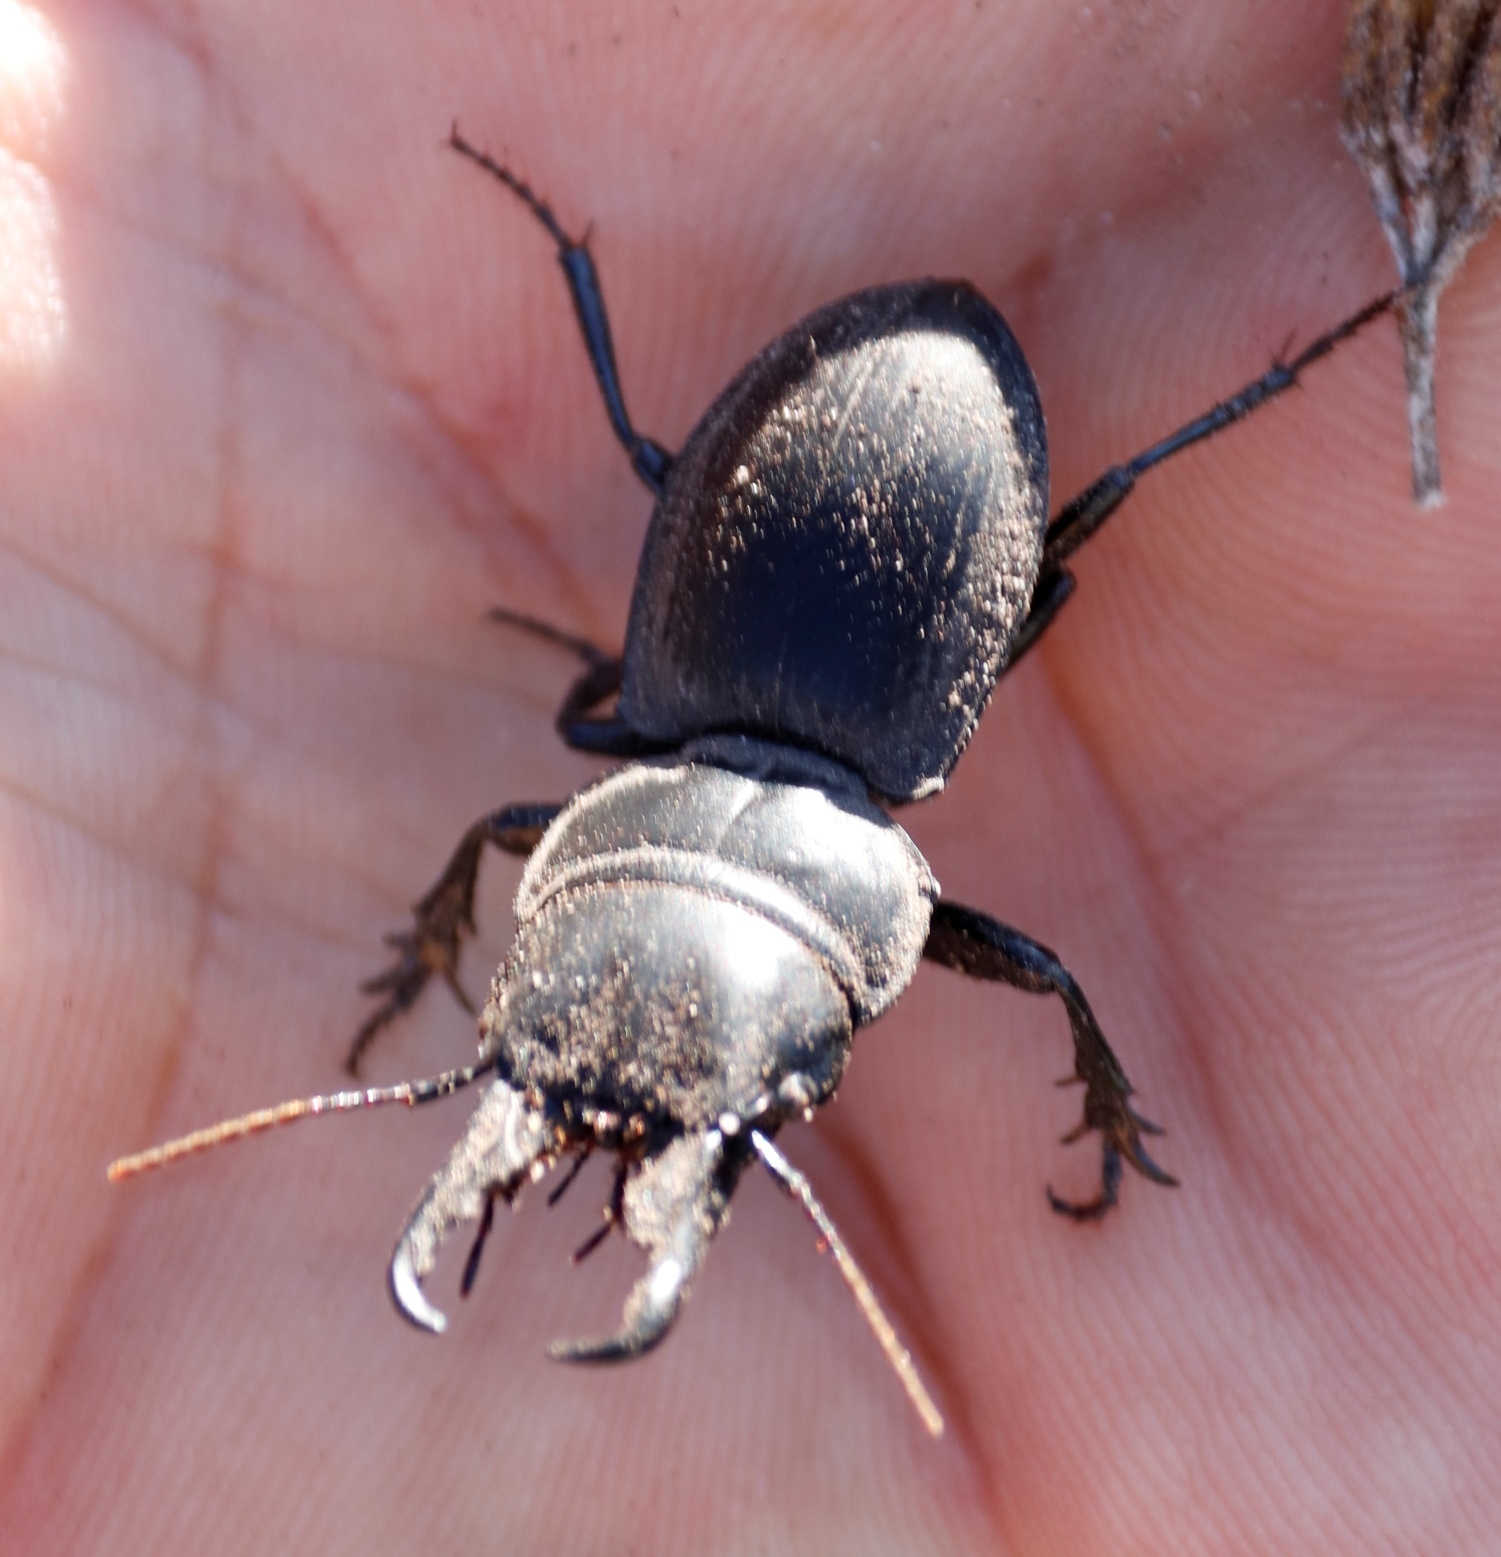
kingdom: Animalia
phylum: Arthropoda
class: Insecta
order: Coleoptera
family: Carabidae
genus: Pachyodontus
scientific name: Pachyodontus languidus
